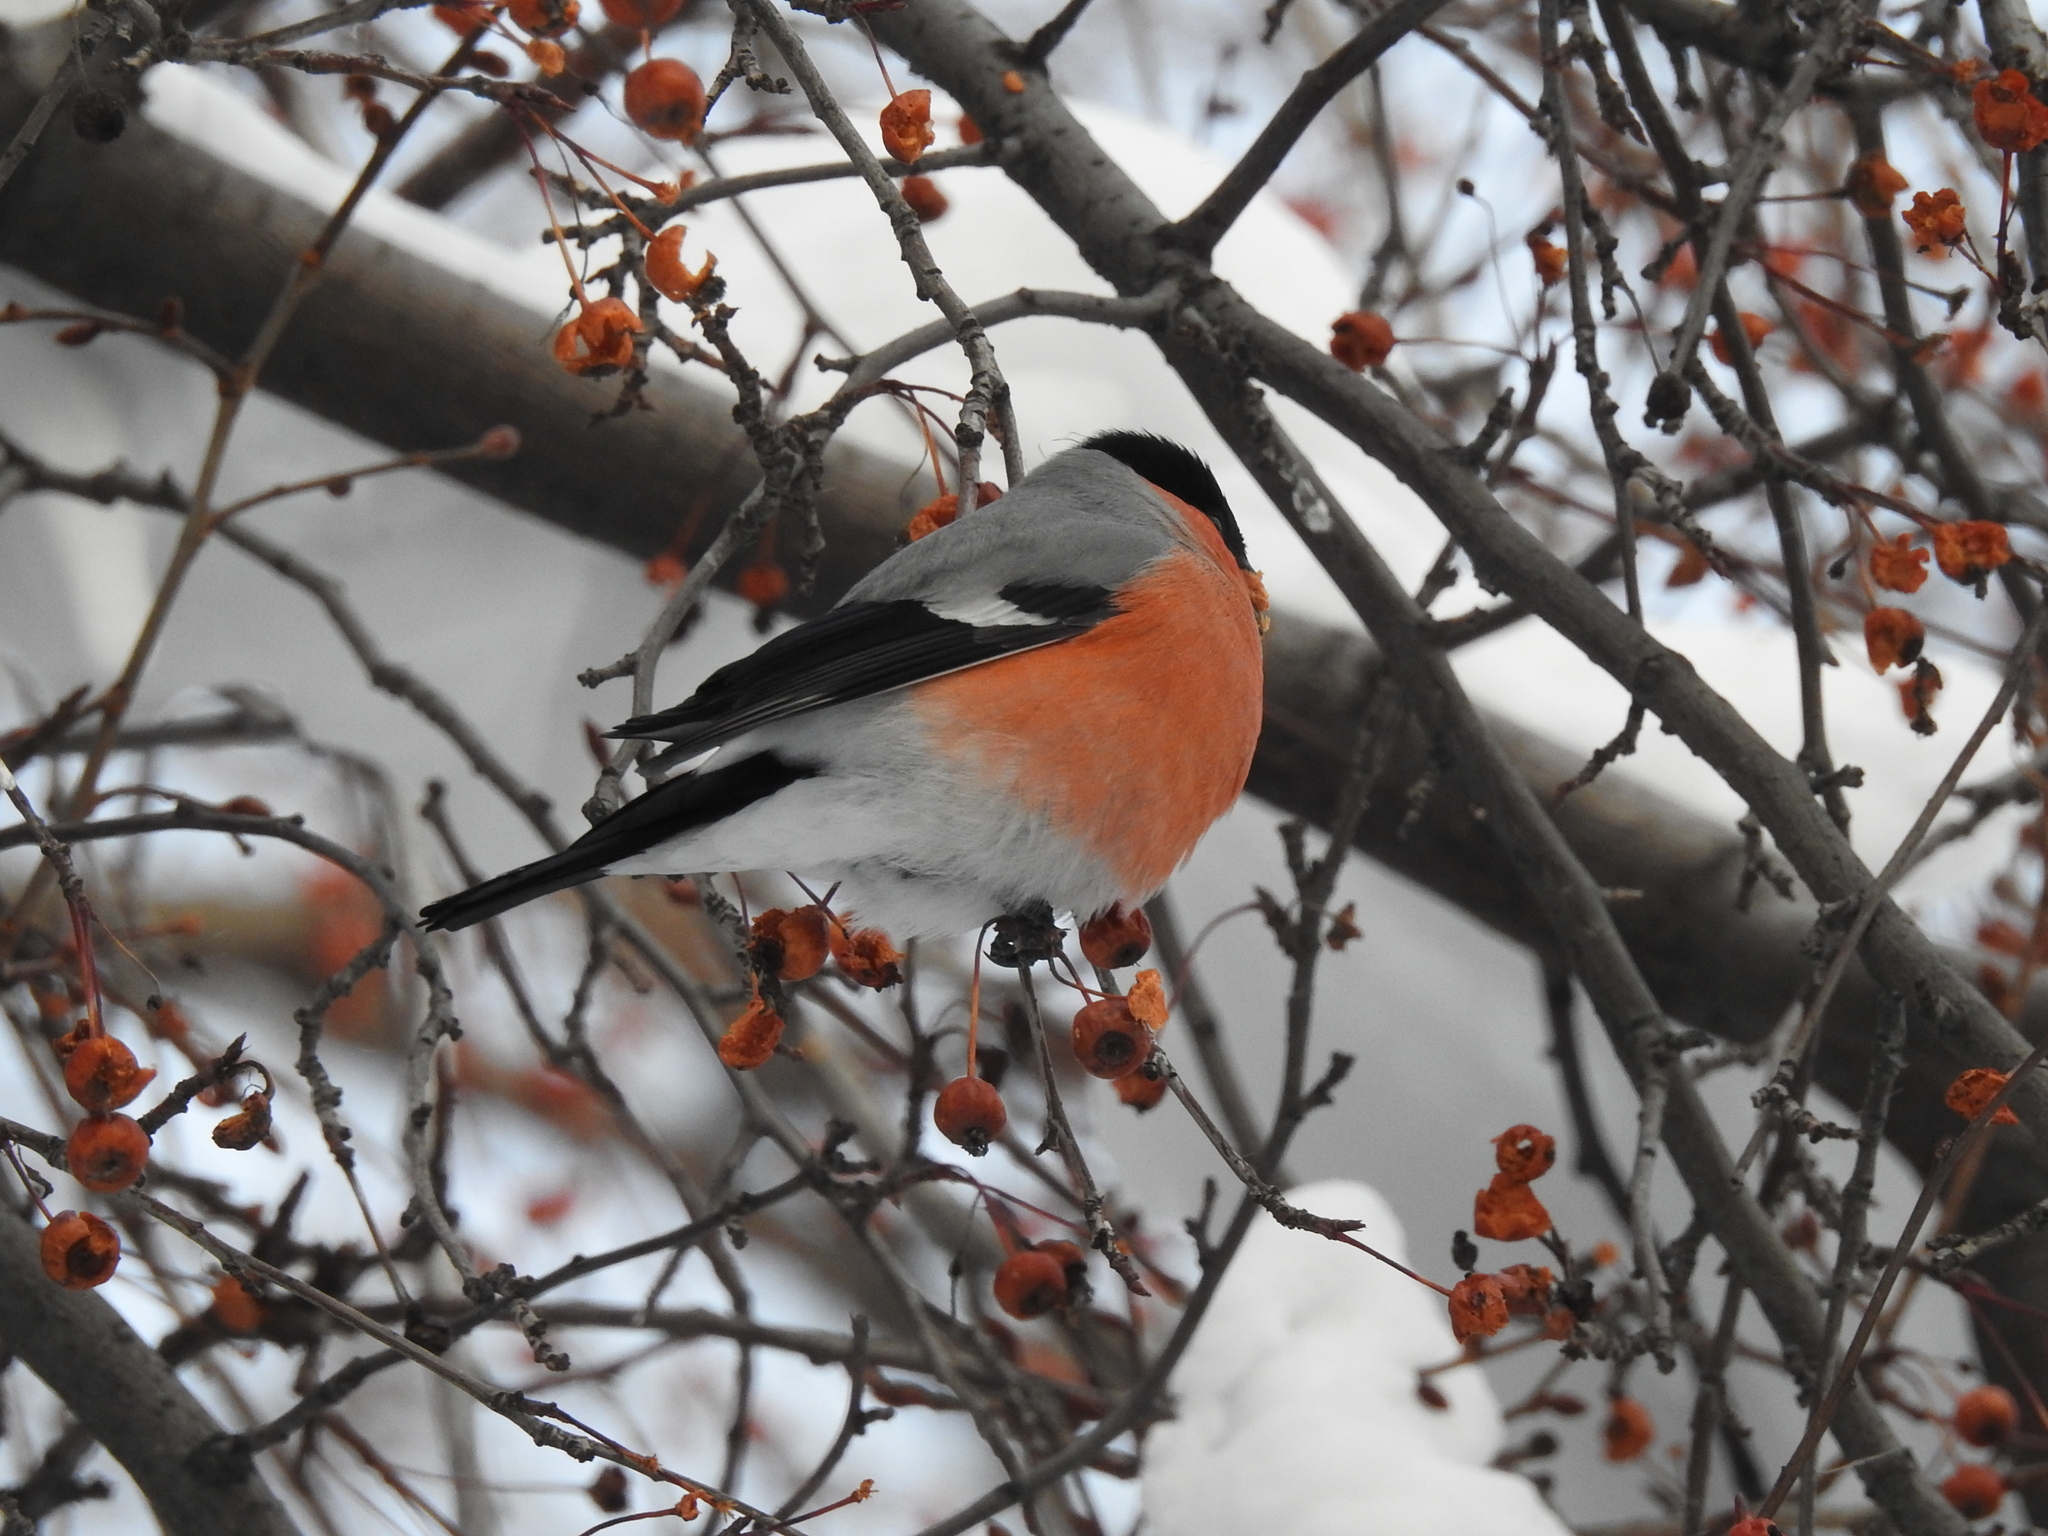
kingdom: Animalia
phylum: Chordata
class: Aves
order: Passeriformes
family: Fringillidae
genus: Pyrrhula
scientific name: Pyrrhula pyrrhula
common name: Eurasian bullfinch
